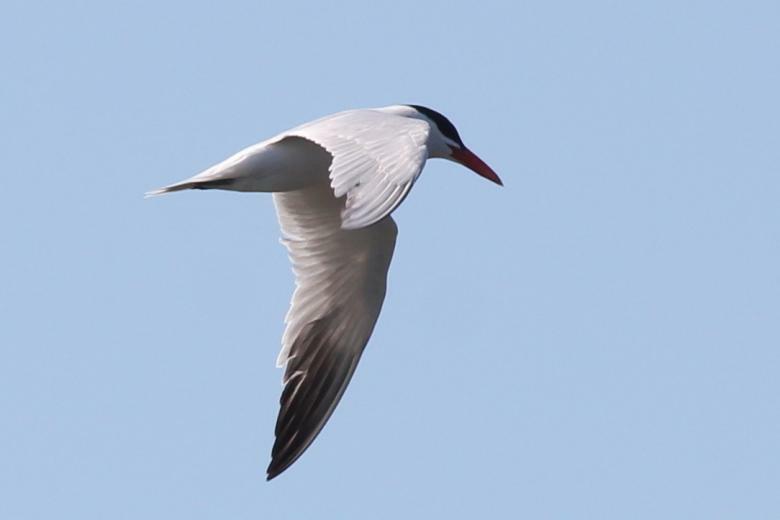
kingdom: Animalia
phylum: Chordata
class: Aves
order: Charadriiformes
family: Laridae
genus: Hydroprogne
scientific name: Hydroprogne caspia
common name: Caspian tern
